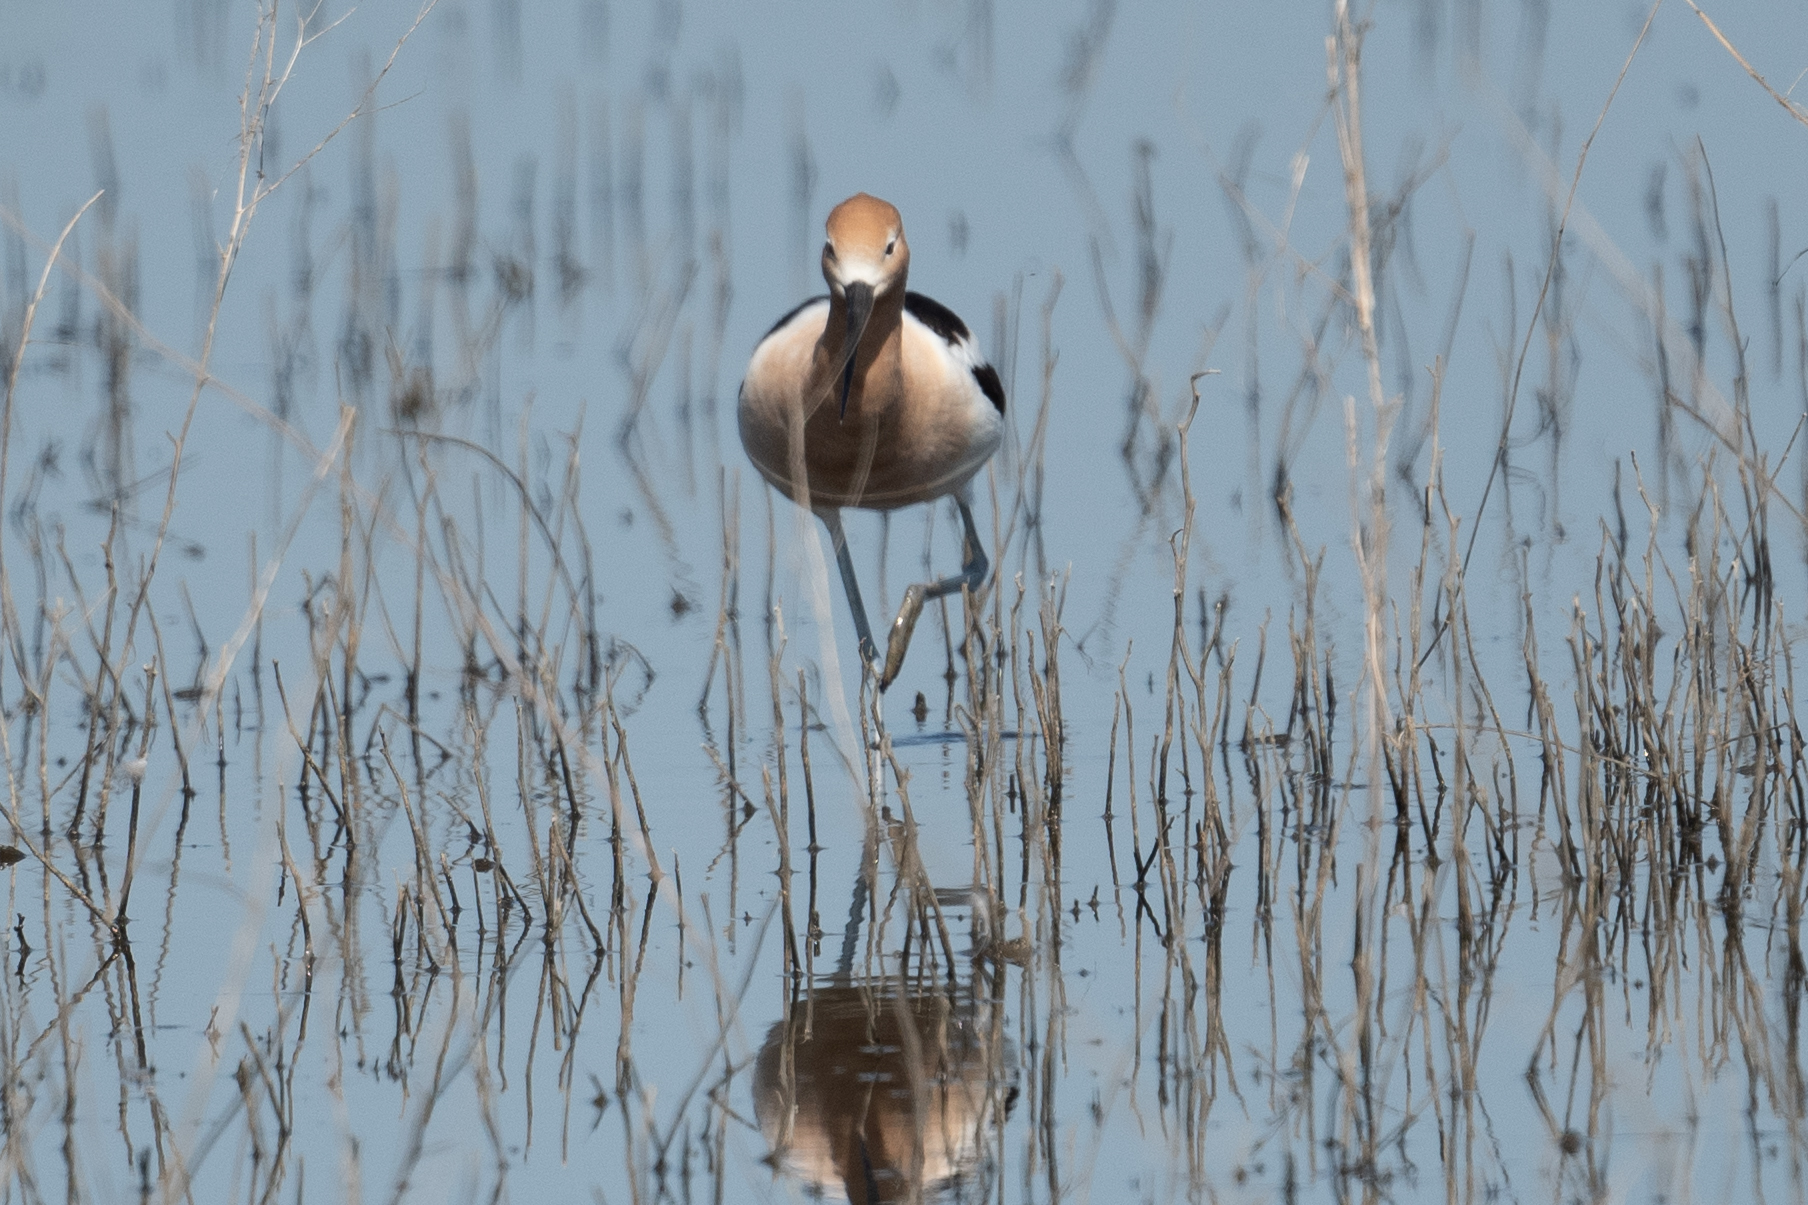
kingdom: Animalia
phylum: Chordata
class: Aves
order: Charadriiformes
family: Recurvirostridae
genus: Recurvirostra
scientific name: Recurvirostra americana
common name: American avocet
